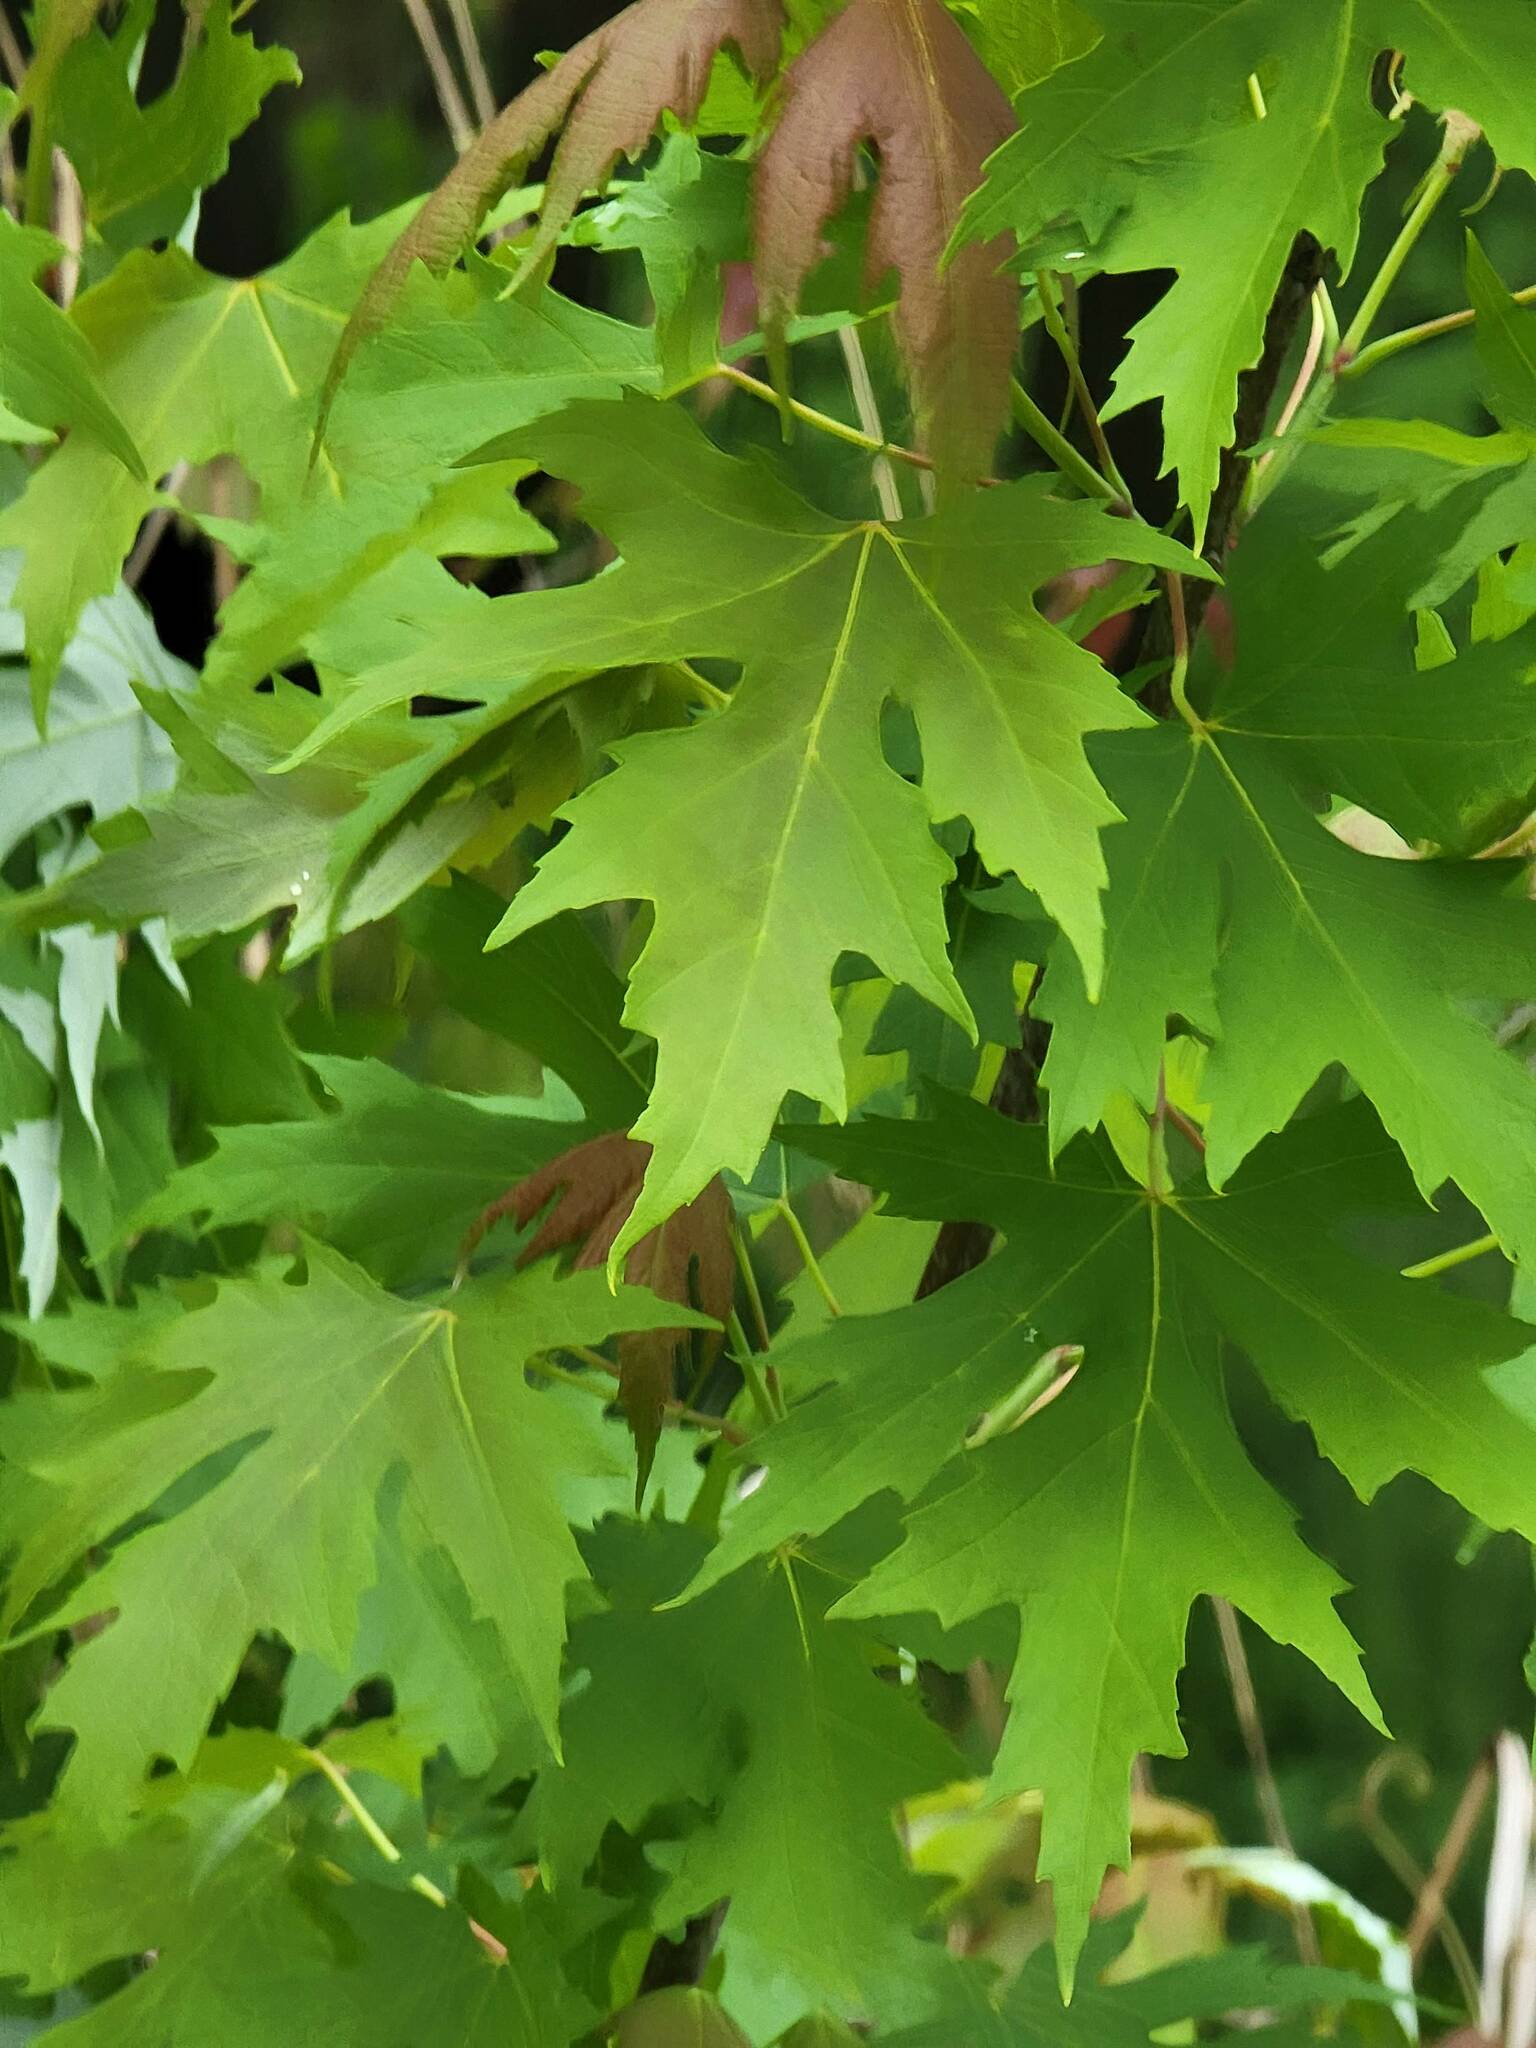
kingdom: Plantae
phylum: Tracheophyta
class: Magnoliopsida
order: Sapindales
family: Sapindaceae
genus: Acer
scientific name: Acer saccharinum
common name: Silver maple
